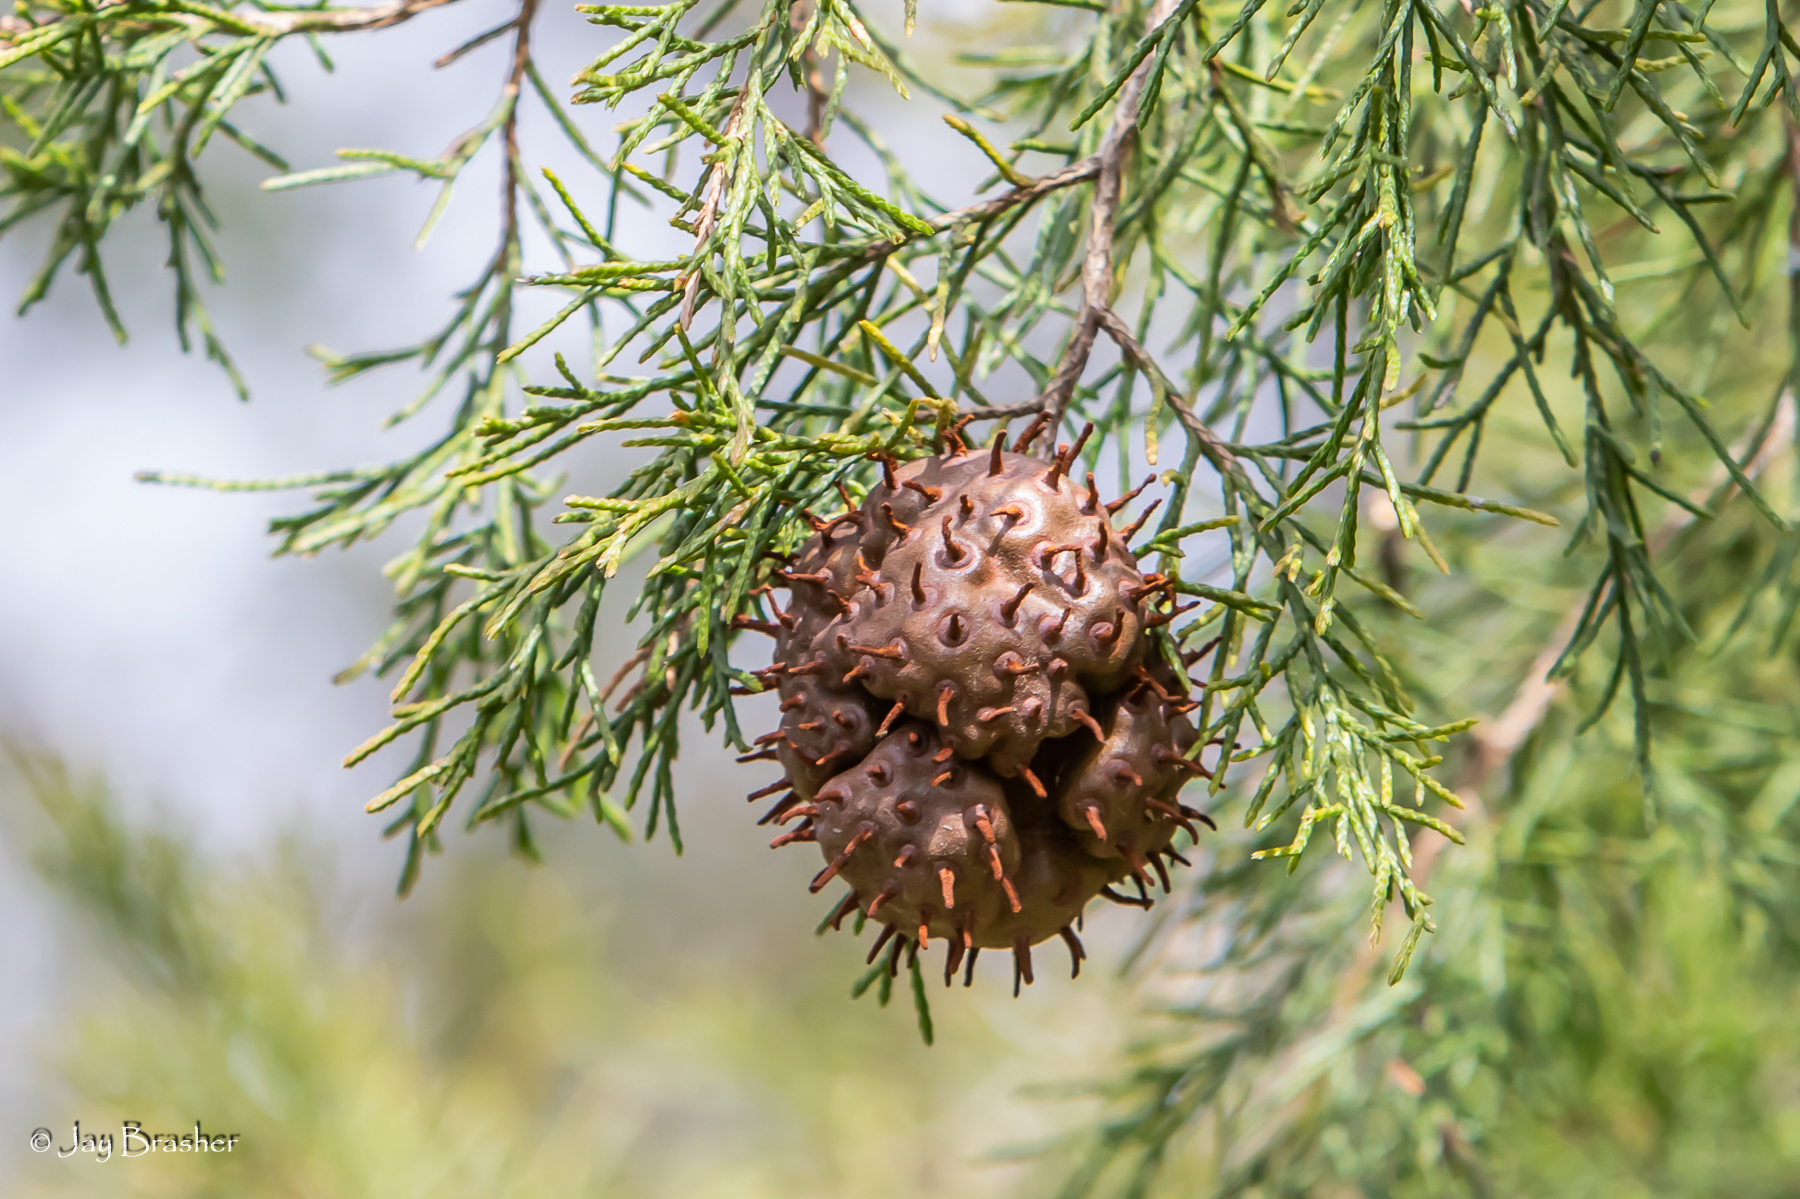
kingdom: Fungi
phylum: Basidiomycota
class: Pucciniomycetes
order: Pucciniales
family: Gymnosporangiaceae
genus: Gymnosporangium
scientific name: Gymnosporangium juniperi-virginianae
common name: Juniper-apple rust
